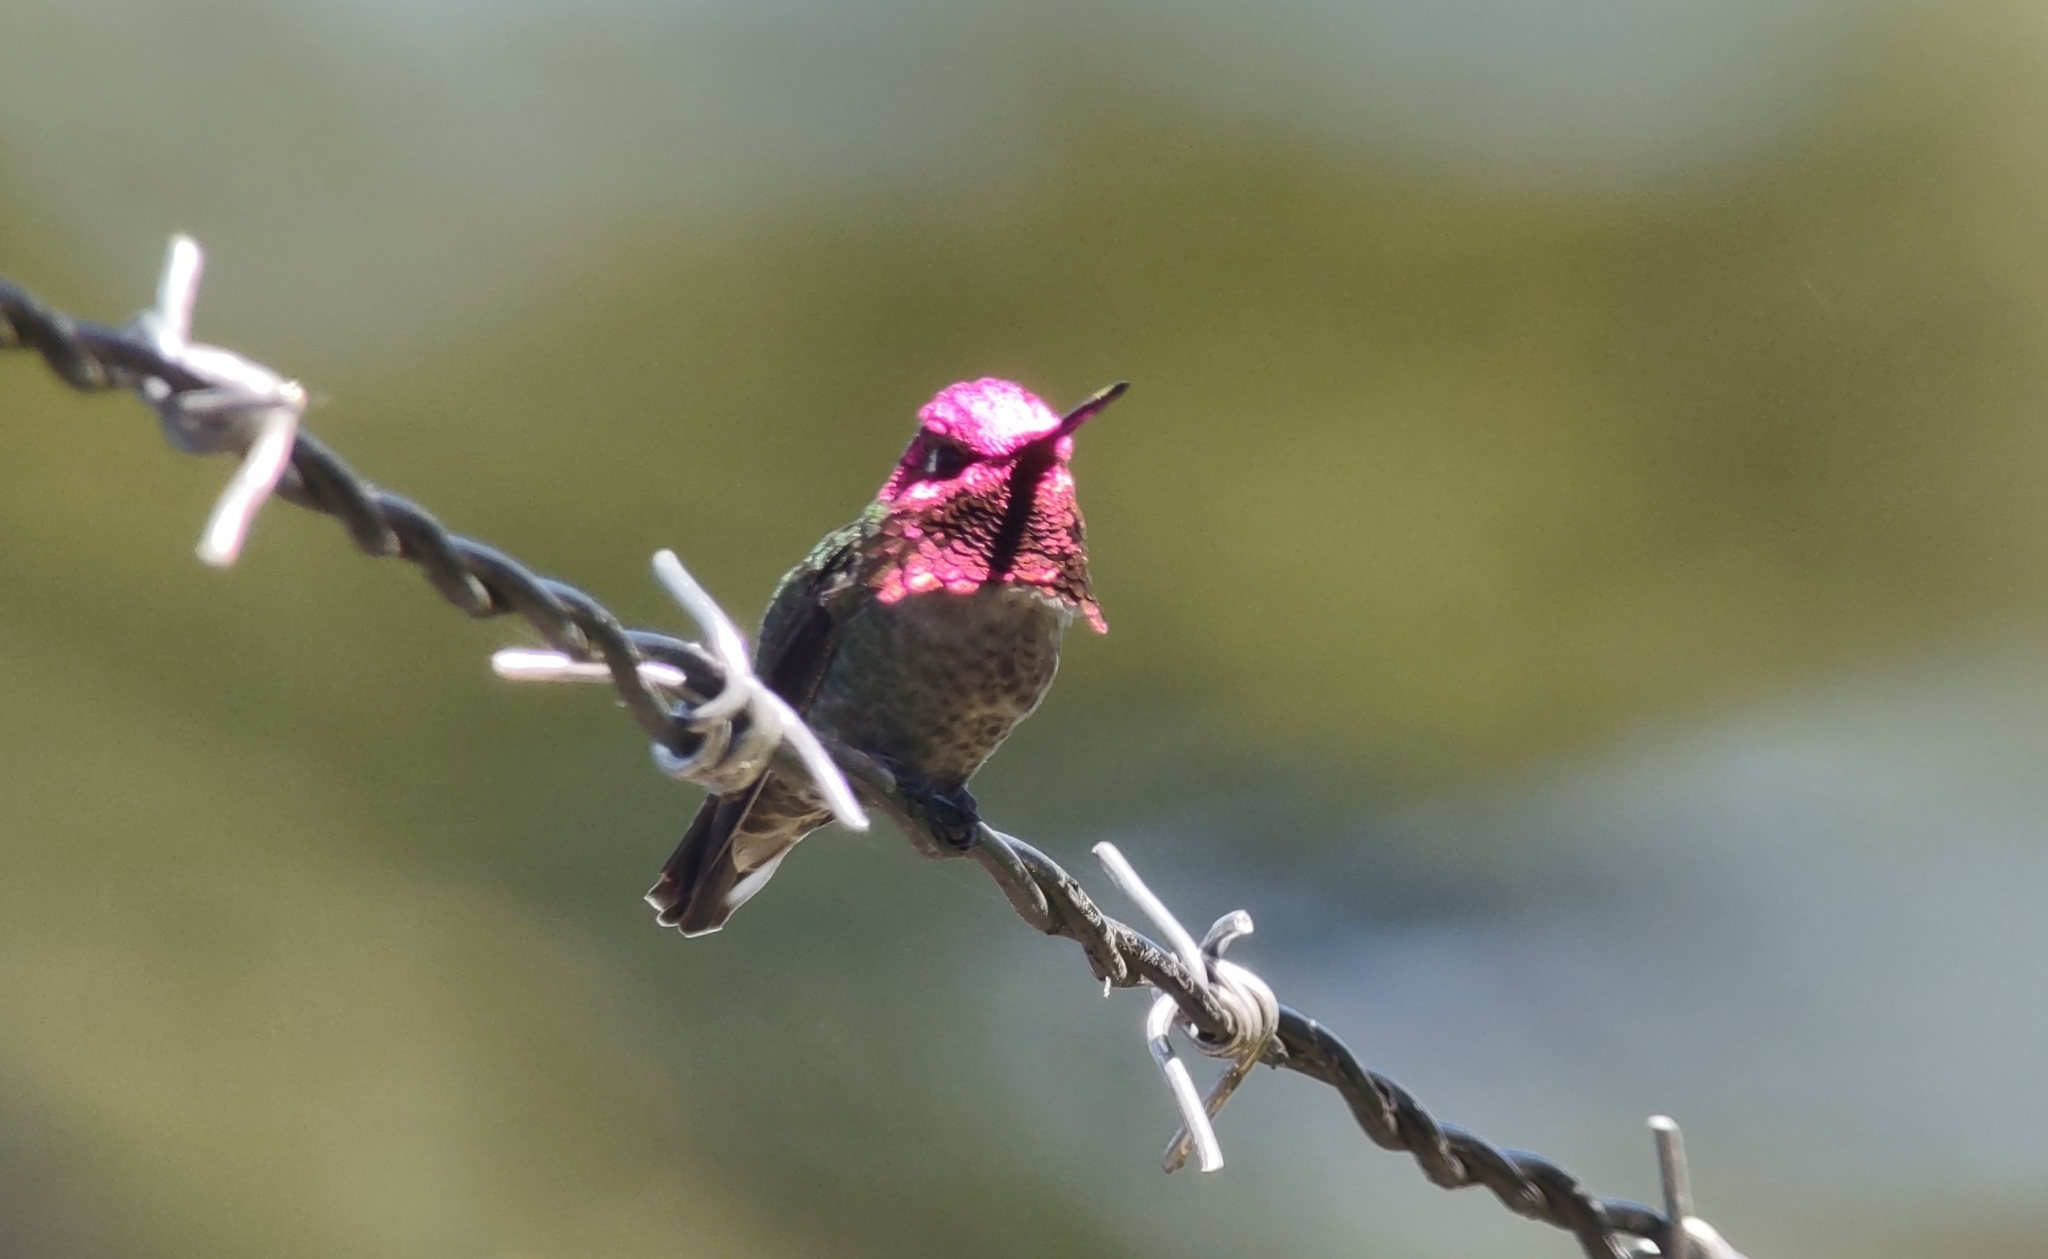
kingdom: Animalia
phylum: Chordata
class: Aves
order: Apodiformes
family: Trochilidae
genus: Calypte
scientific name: Calypte anna
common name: Anna's hummingbird
